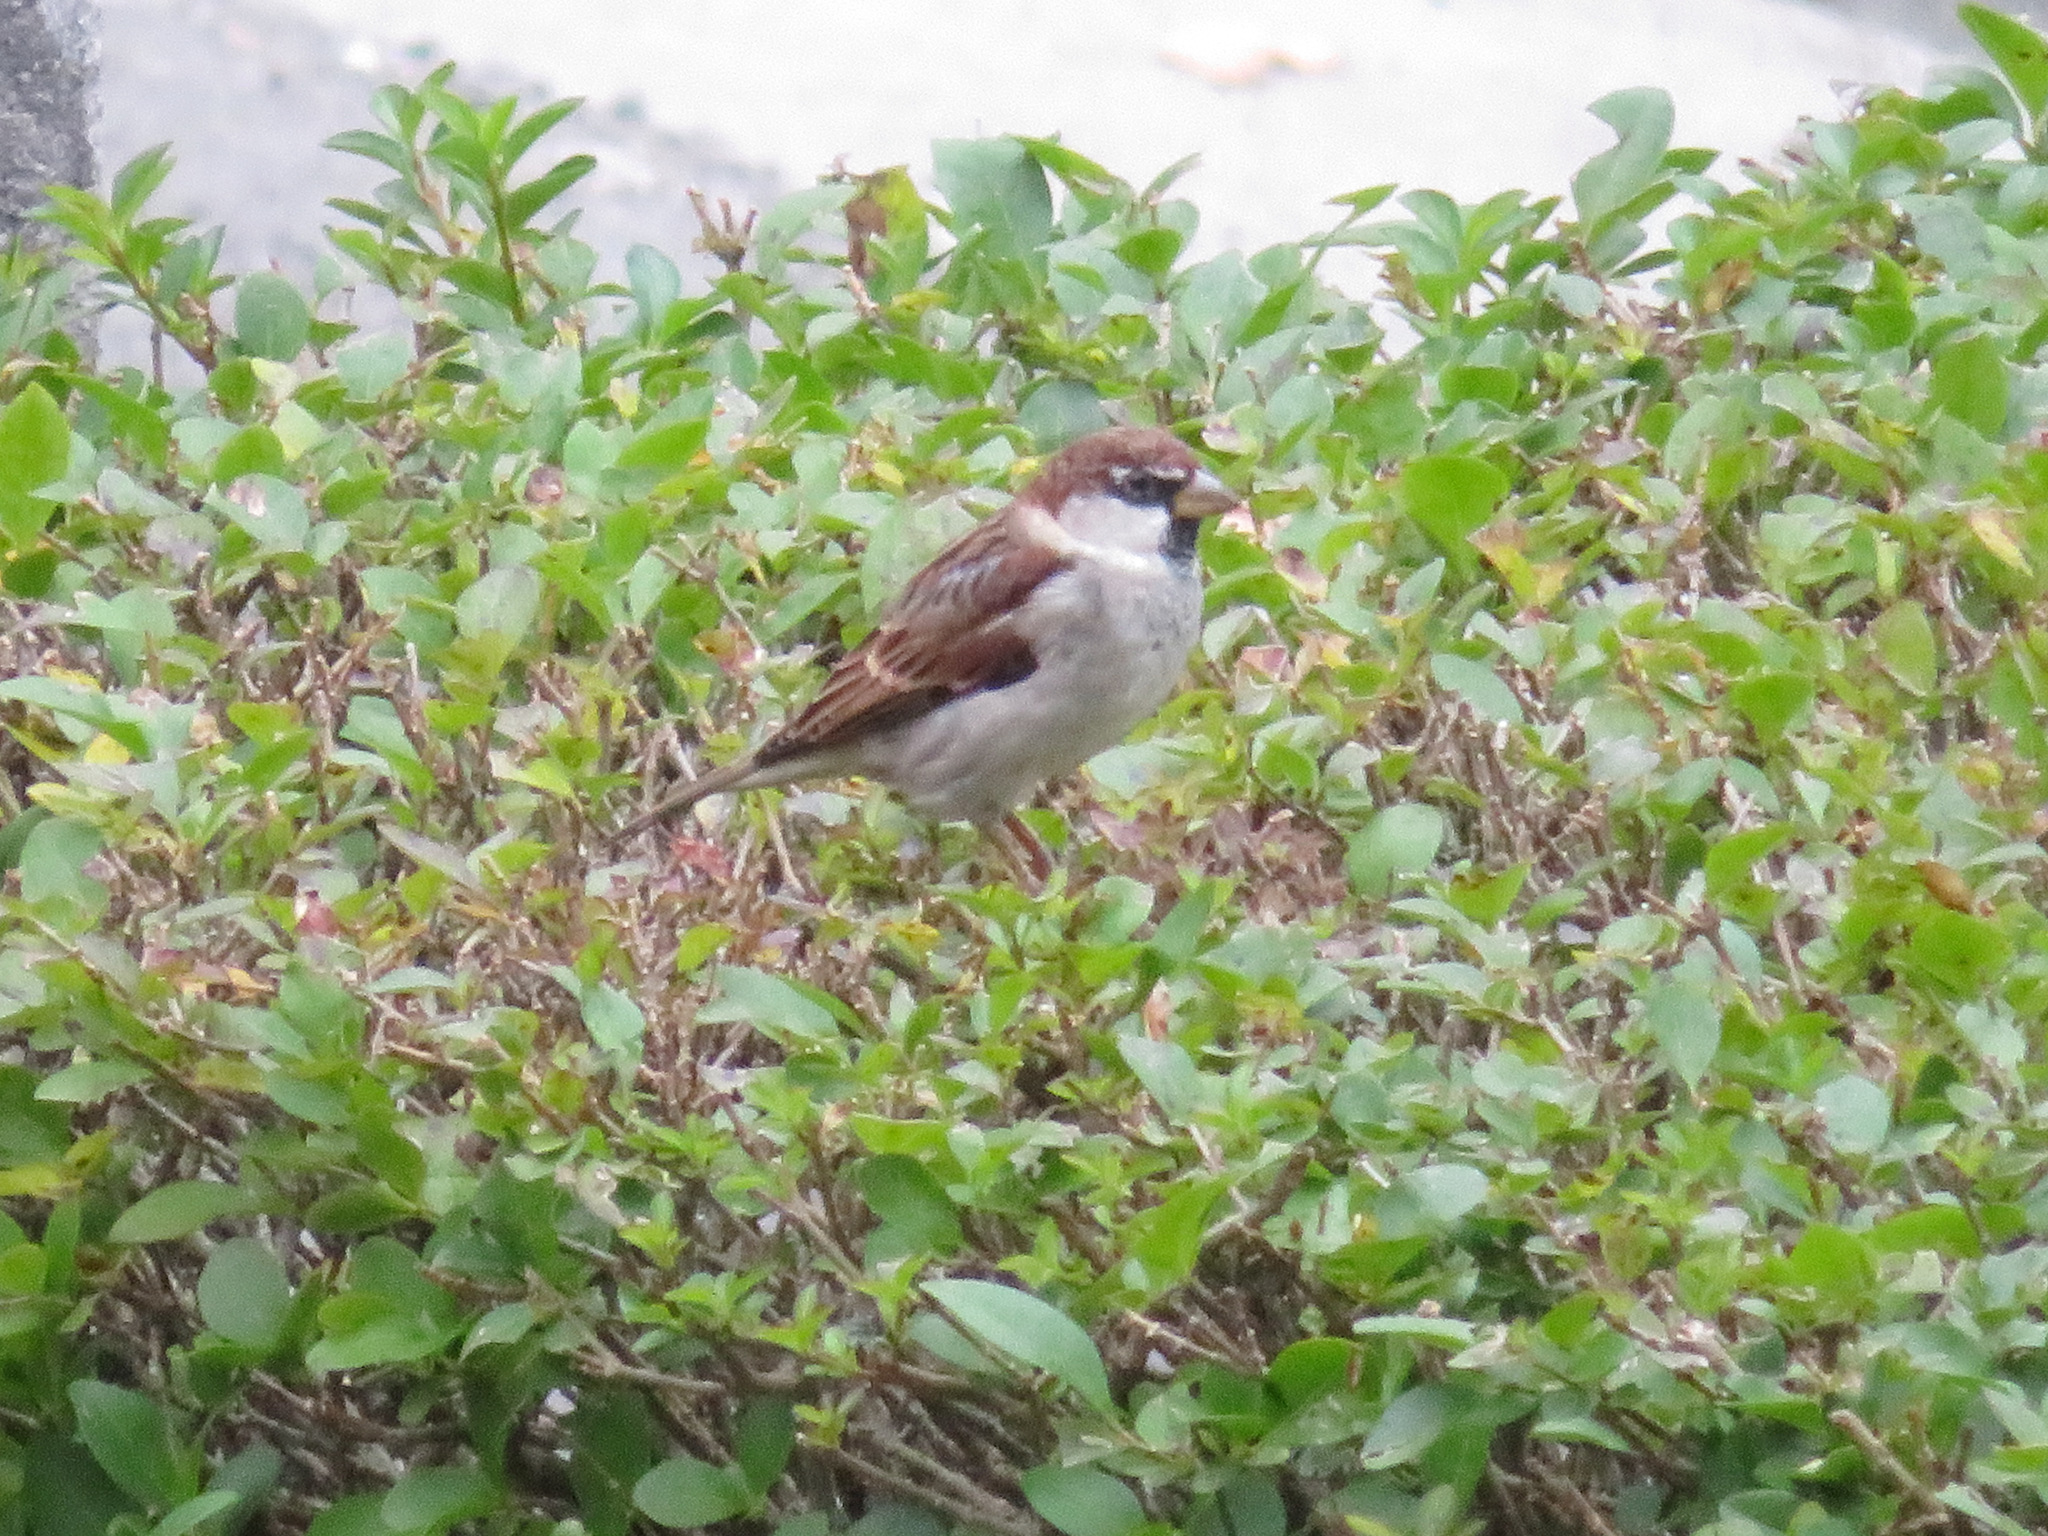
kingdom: Animalia
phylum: Chordata
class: Aves
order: Passeriformes
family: Passeridae
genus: Passer
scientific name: Passer italiae
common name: Italian sparrow
